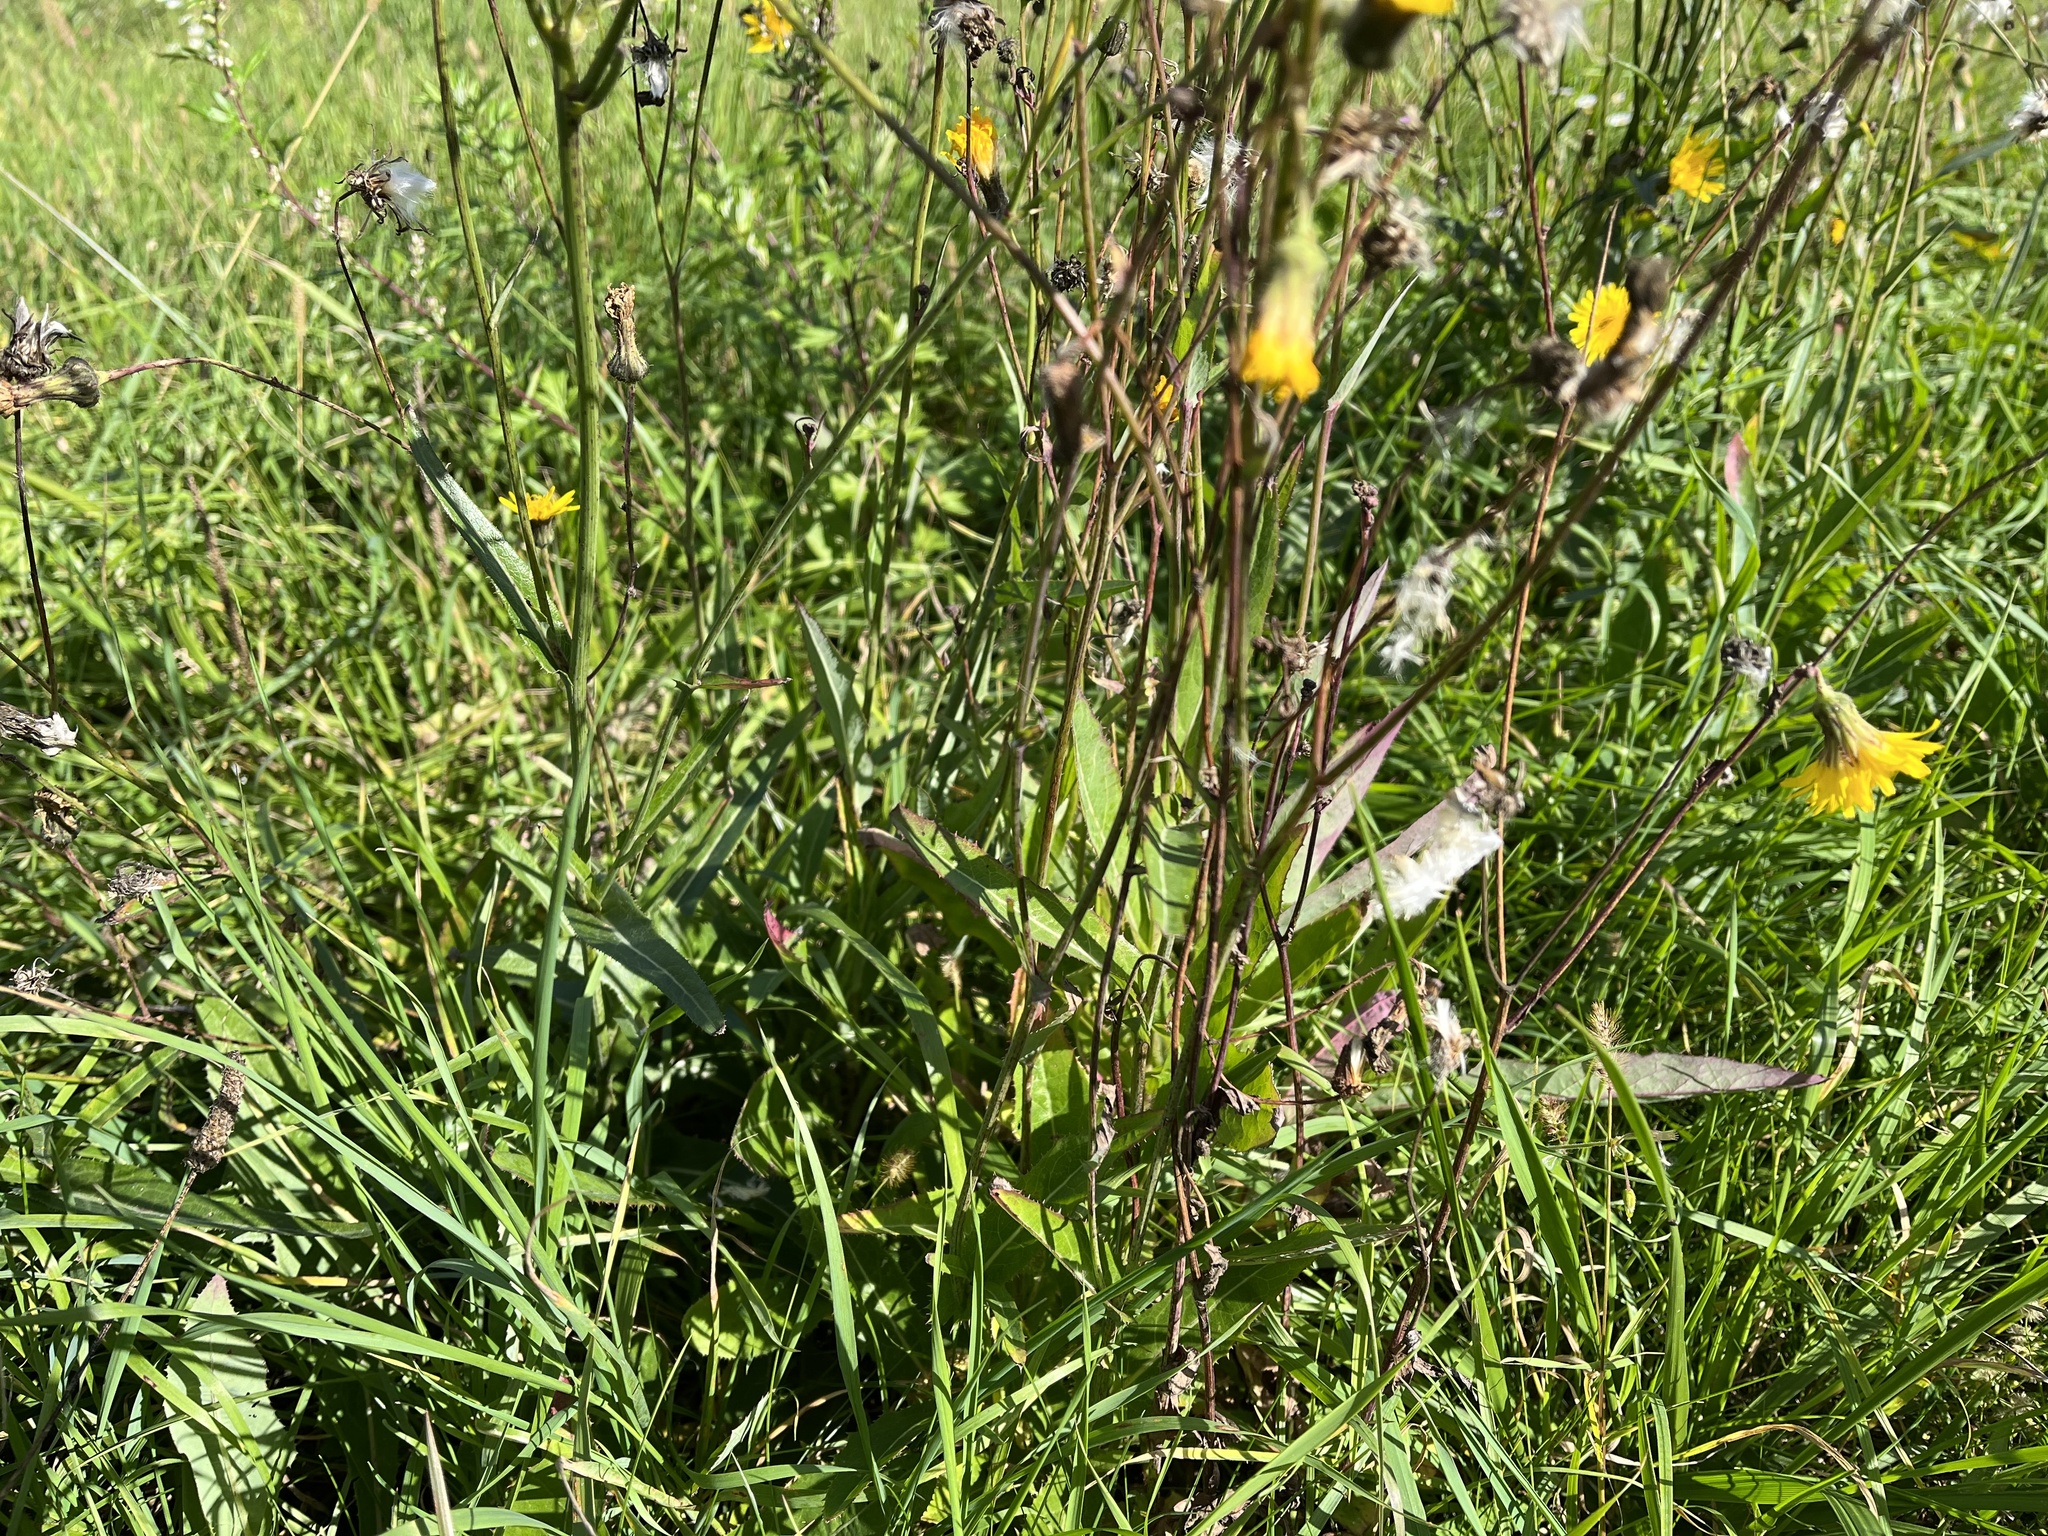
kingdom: Plantae
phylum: Tracheophyta
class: Magnoliopsida
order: Asterales
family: Asteraceae
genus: Sonchus
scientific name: Sonchus arvensis
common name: Perennial sow-thistle
